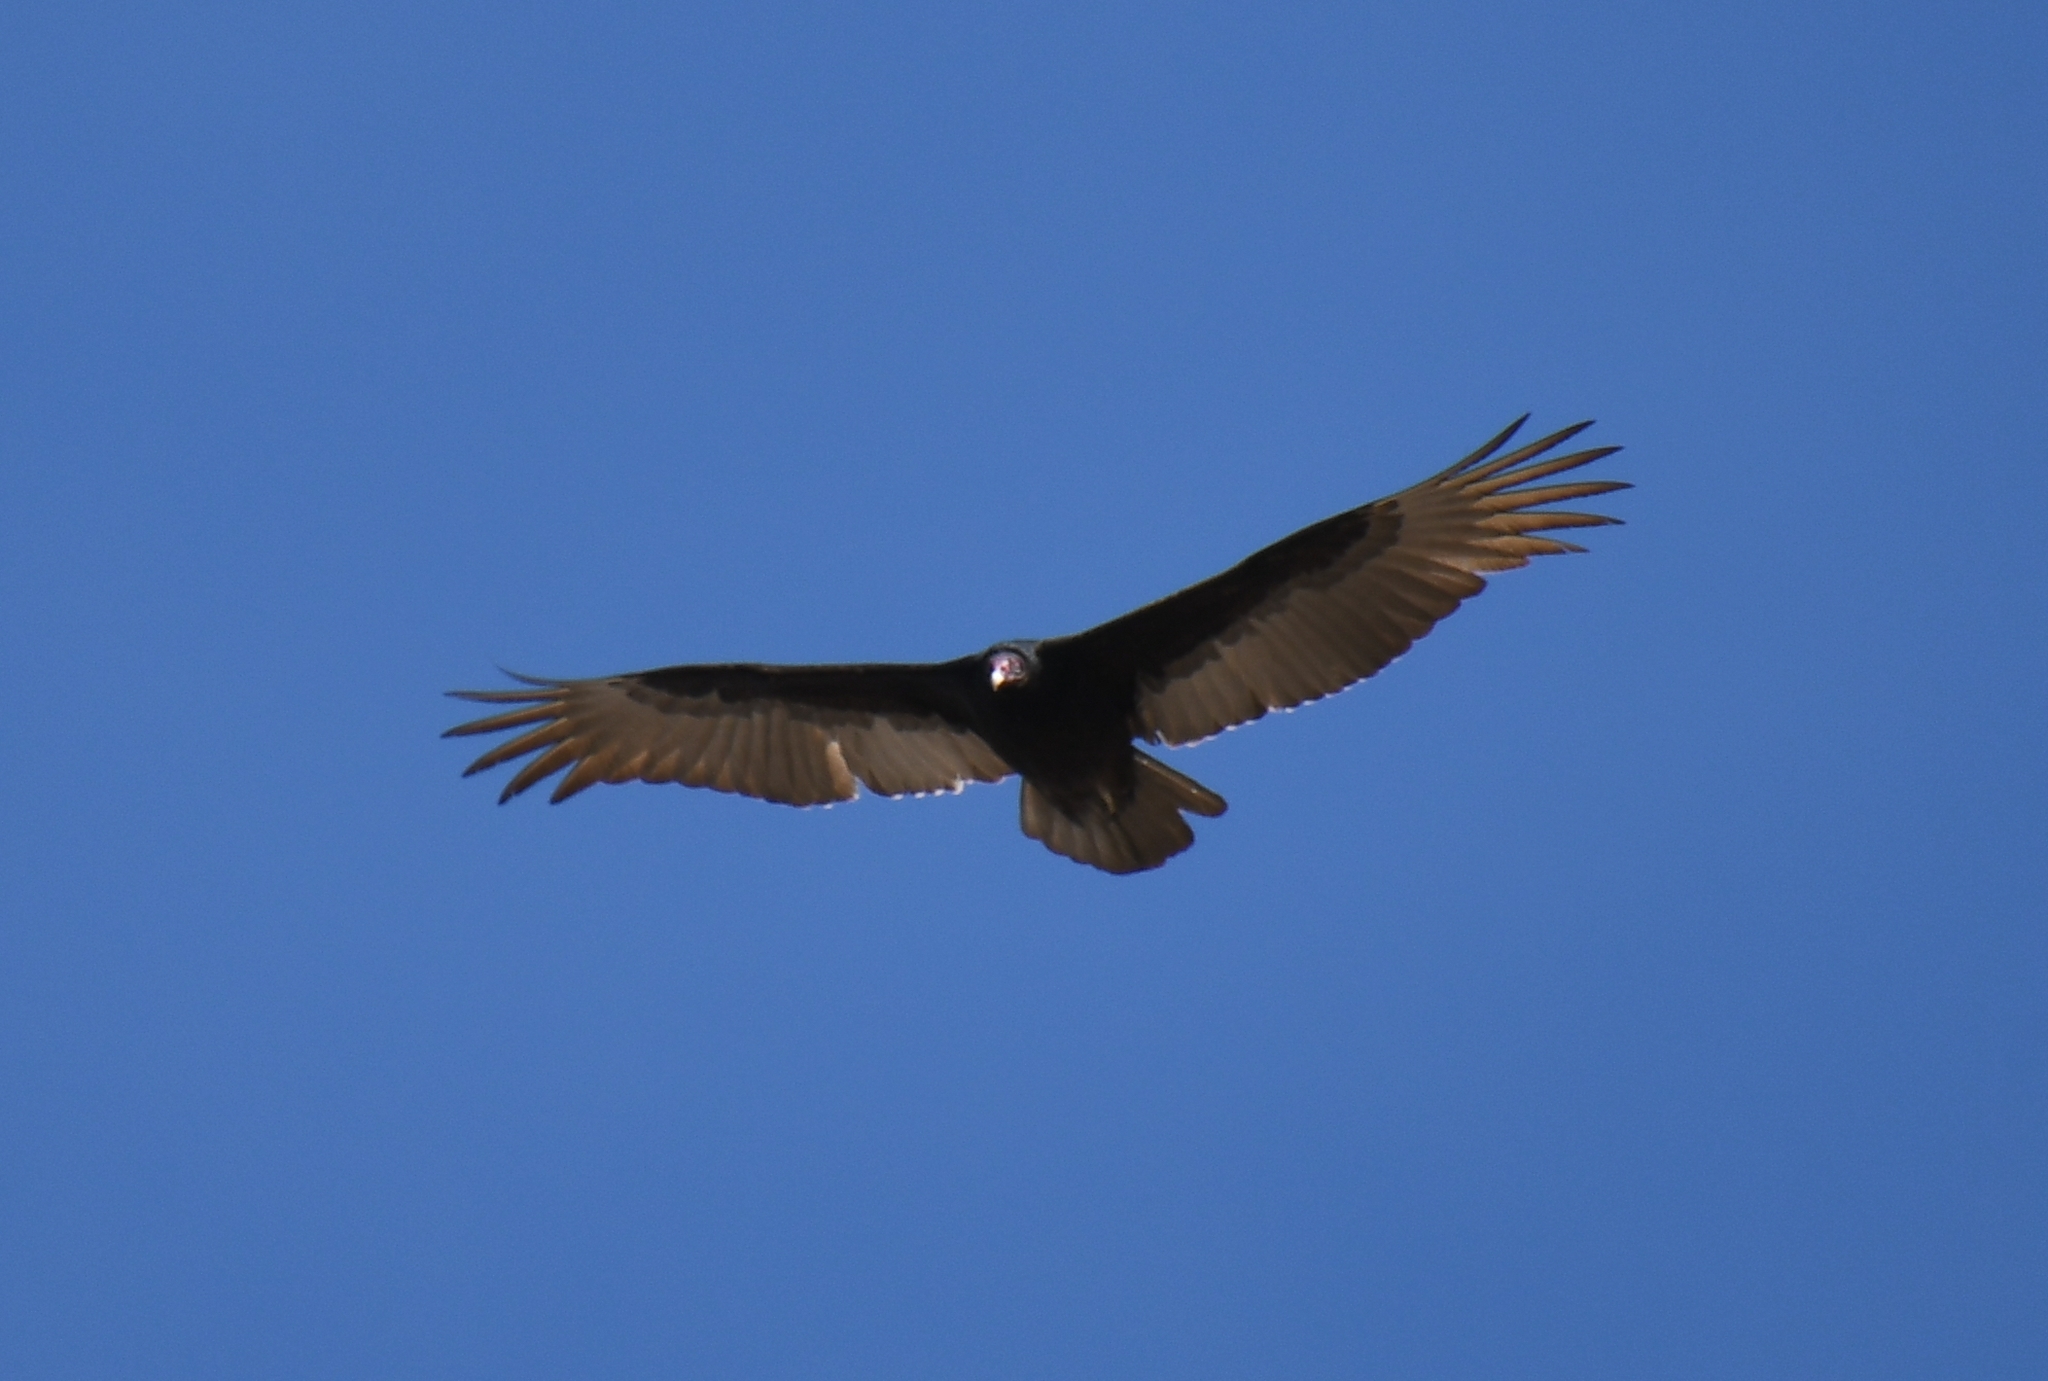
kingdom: Animalia
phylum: Chordata
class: Aves
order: Accipitriformes
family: Cathartidae
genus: Cathartes
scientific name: Cathartes aura
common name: Turkey vulture
